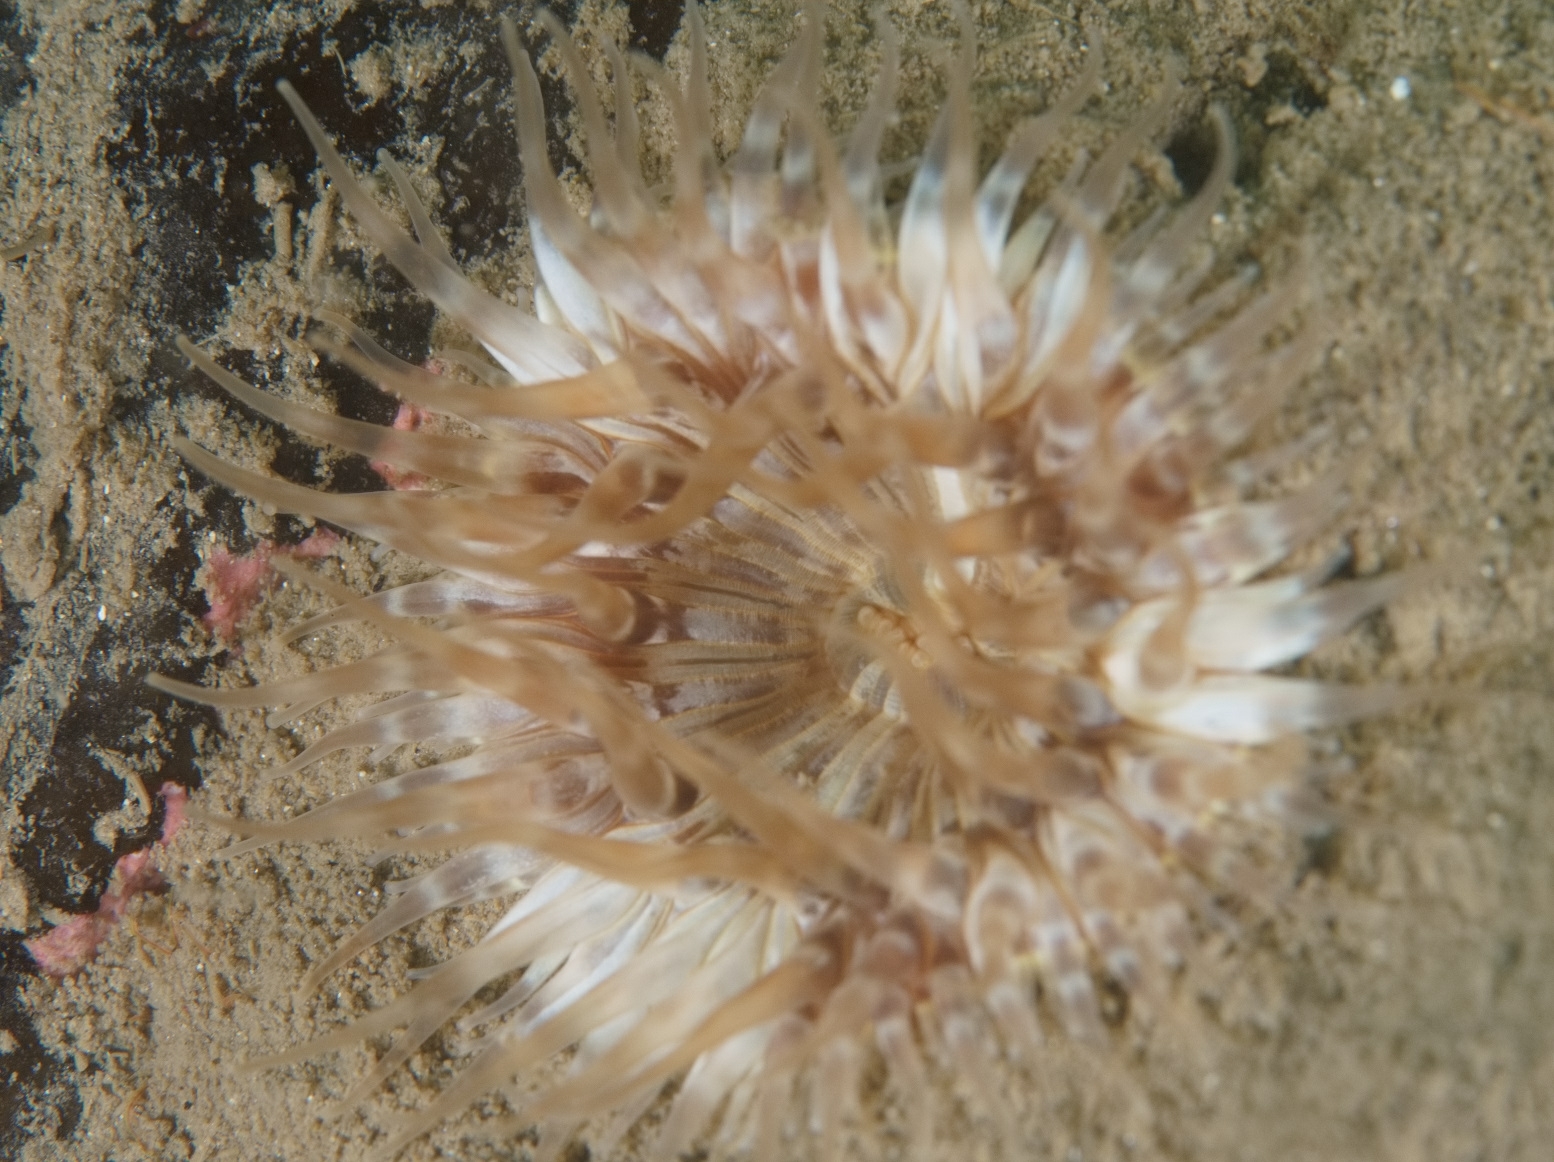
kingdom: Animalia
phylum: Cnidaria
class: Anthozoa
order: Actiniaria
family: Sagartiidae
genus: Cylista
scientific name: Cylista elegans
